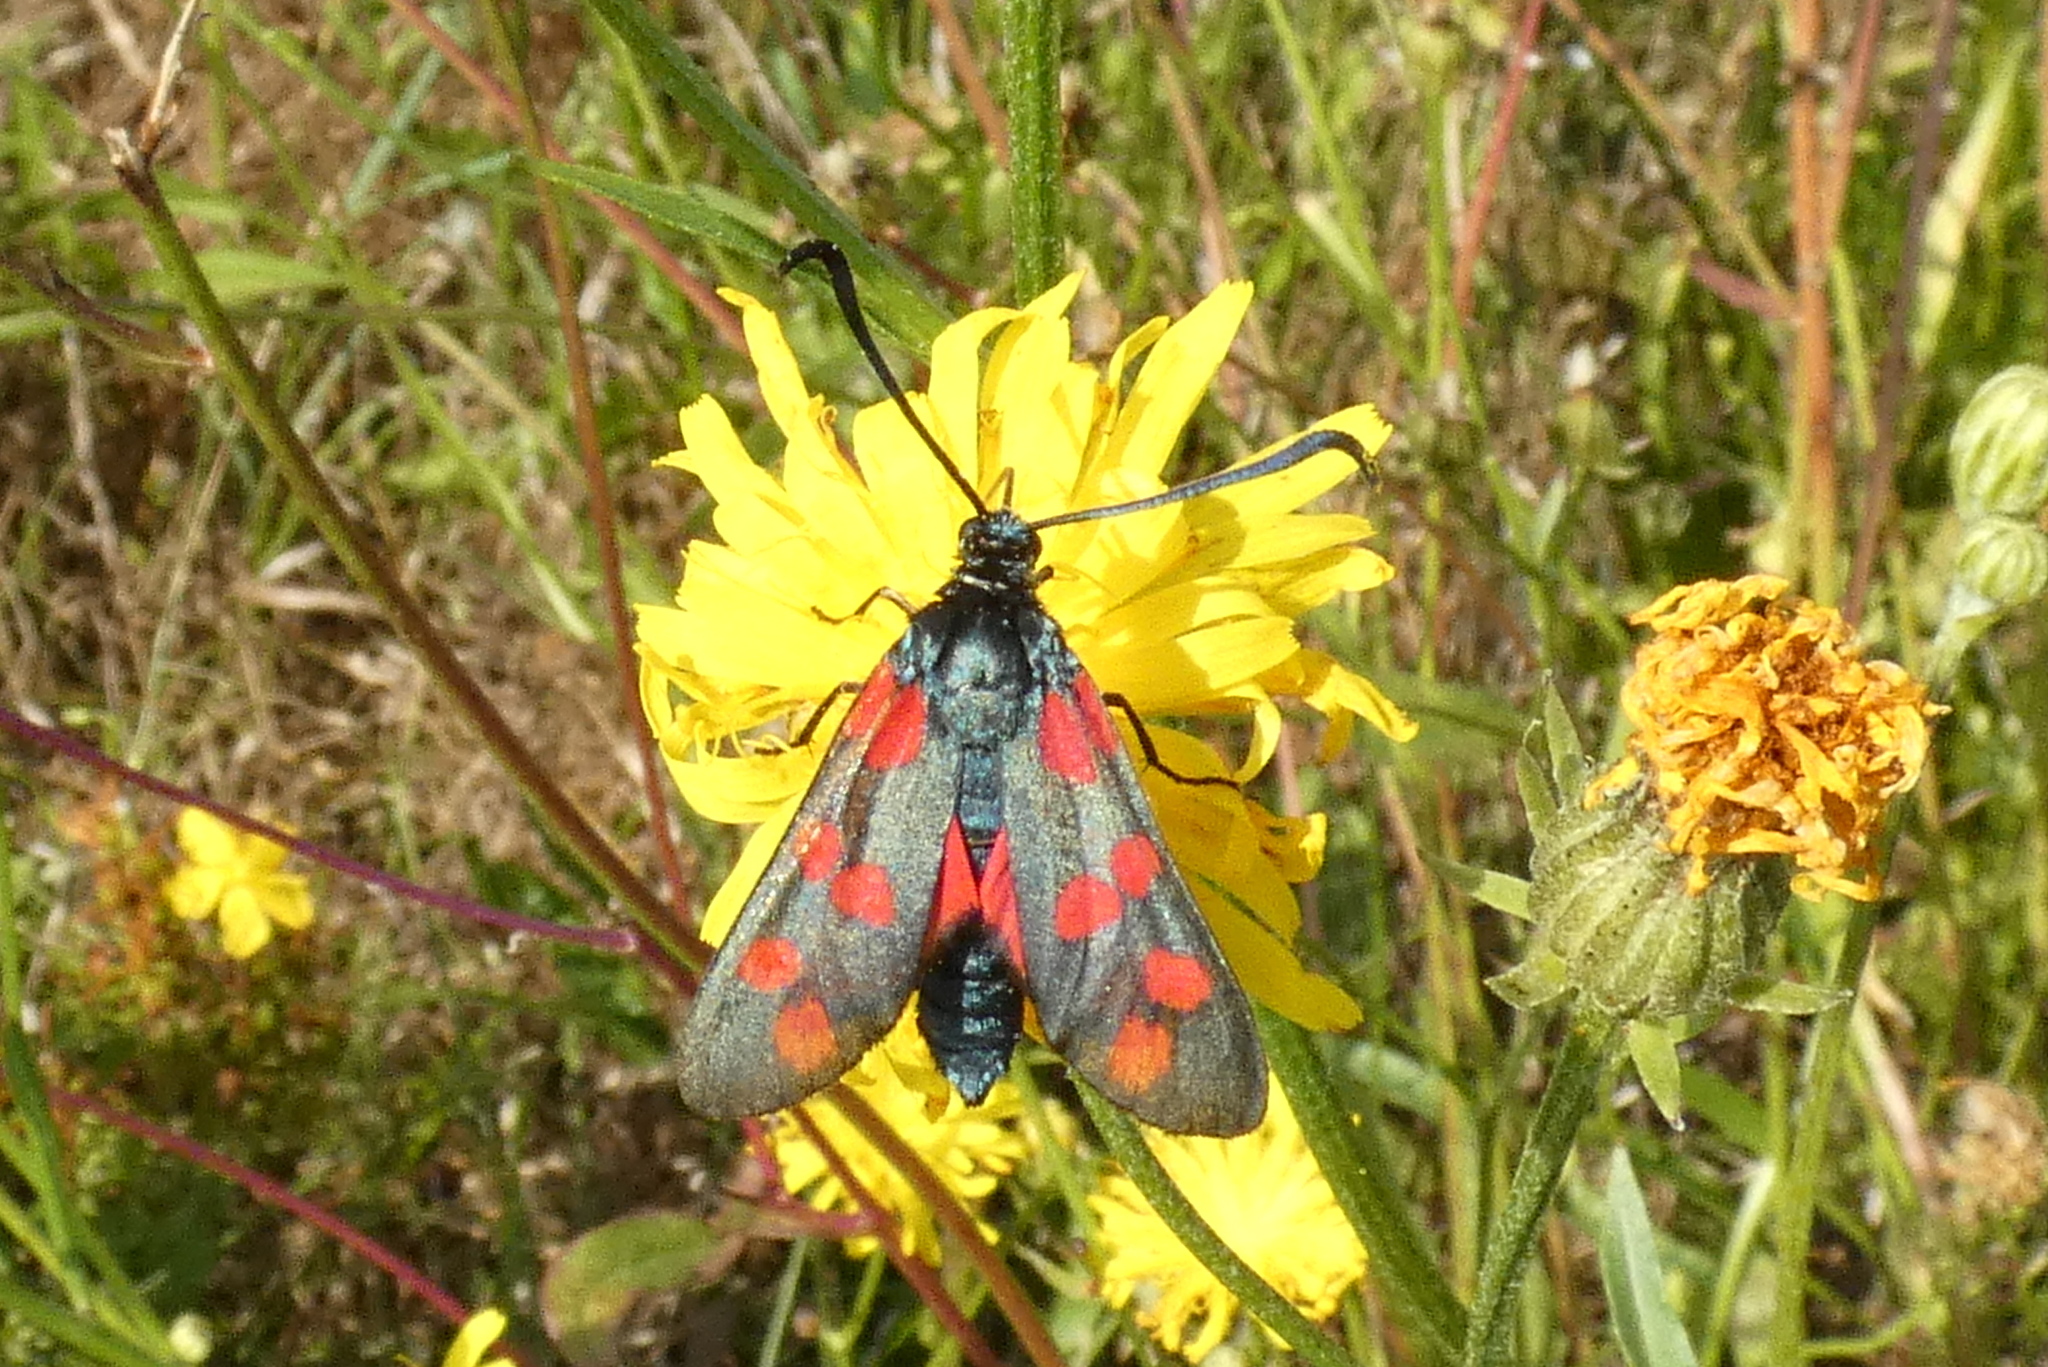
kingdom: Animalia
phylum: Arthropoda
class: Insecta
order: Lepidoptera
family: Zygaenidae
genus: Zygaena
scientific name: Zygaena filipendulae
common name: Six-spot burnet
